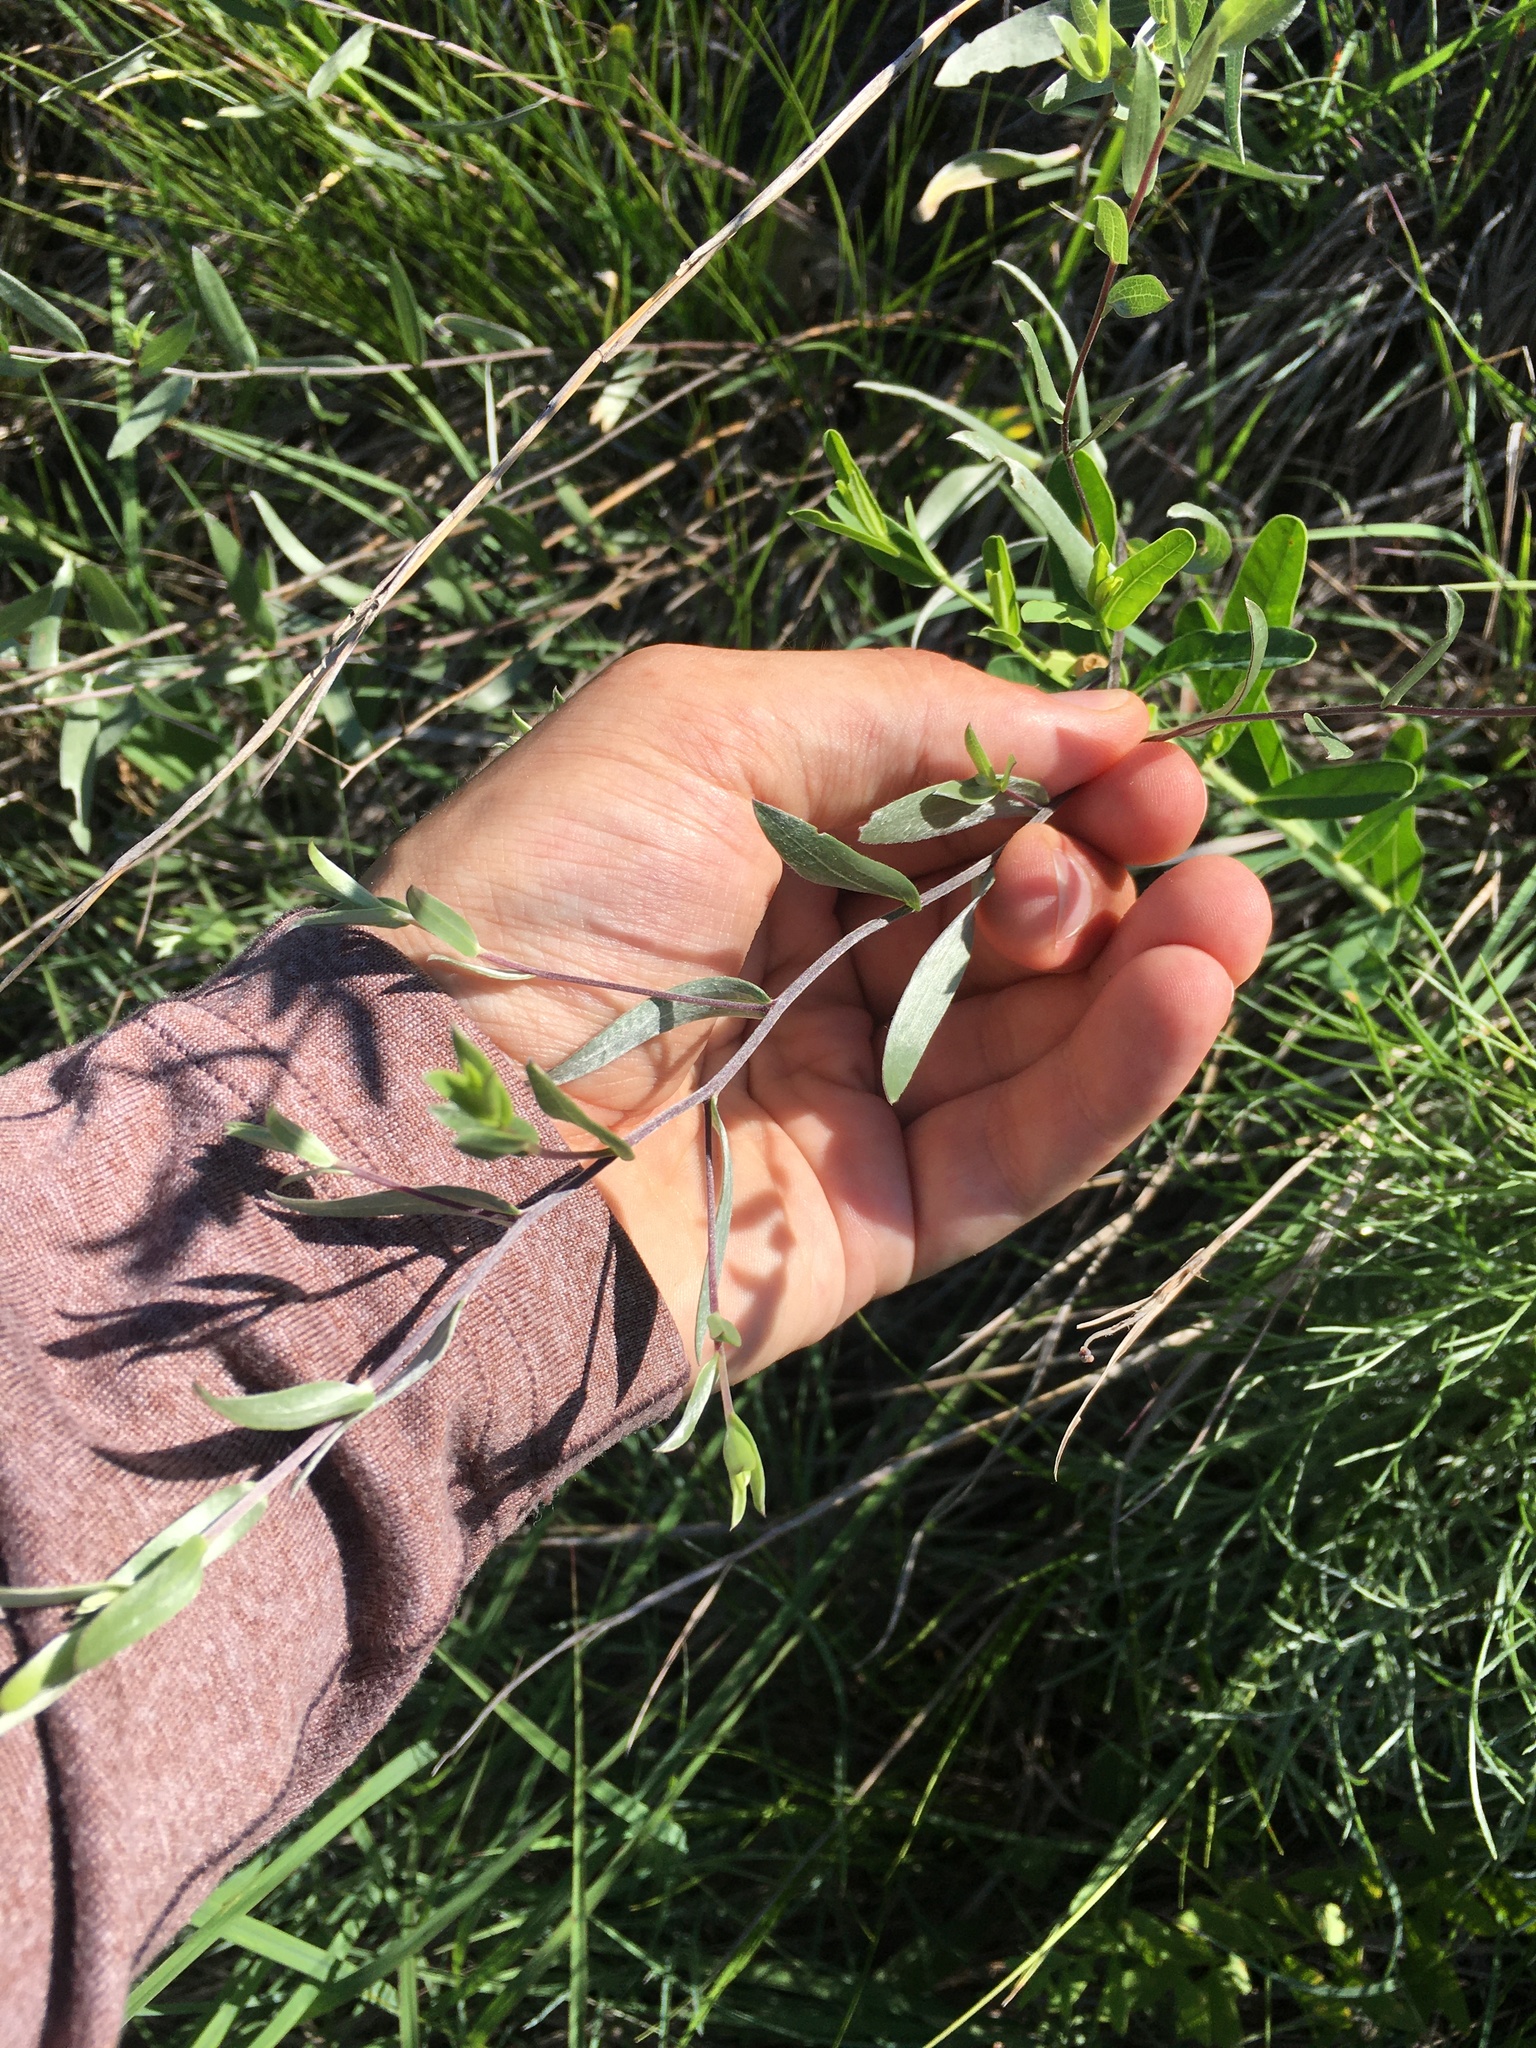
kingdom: Plantae
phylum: Tracheophyta
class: Magnoliopsida
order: Asterales
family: Asteraceae
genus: Symphyotrichum
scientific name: Symphyotrichum sericeum
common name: Silky aster
